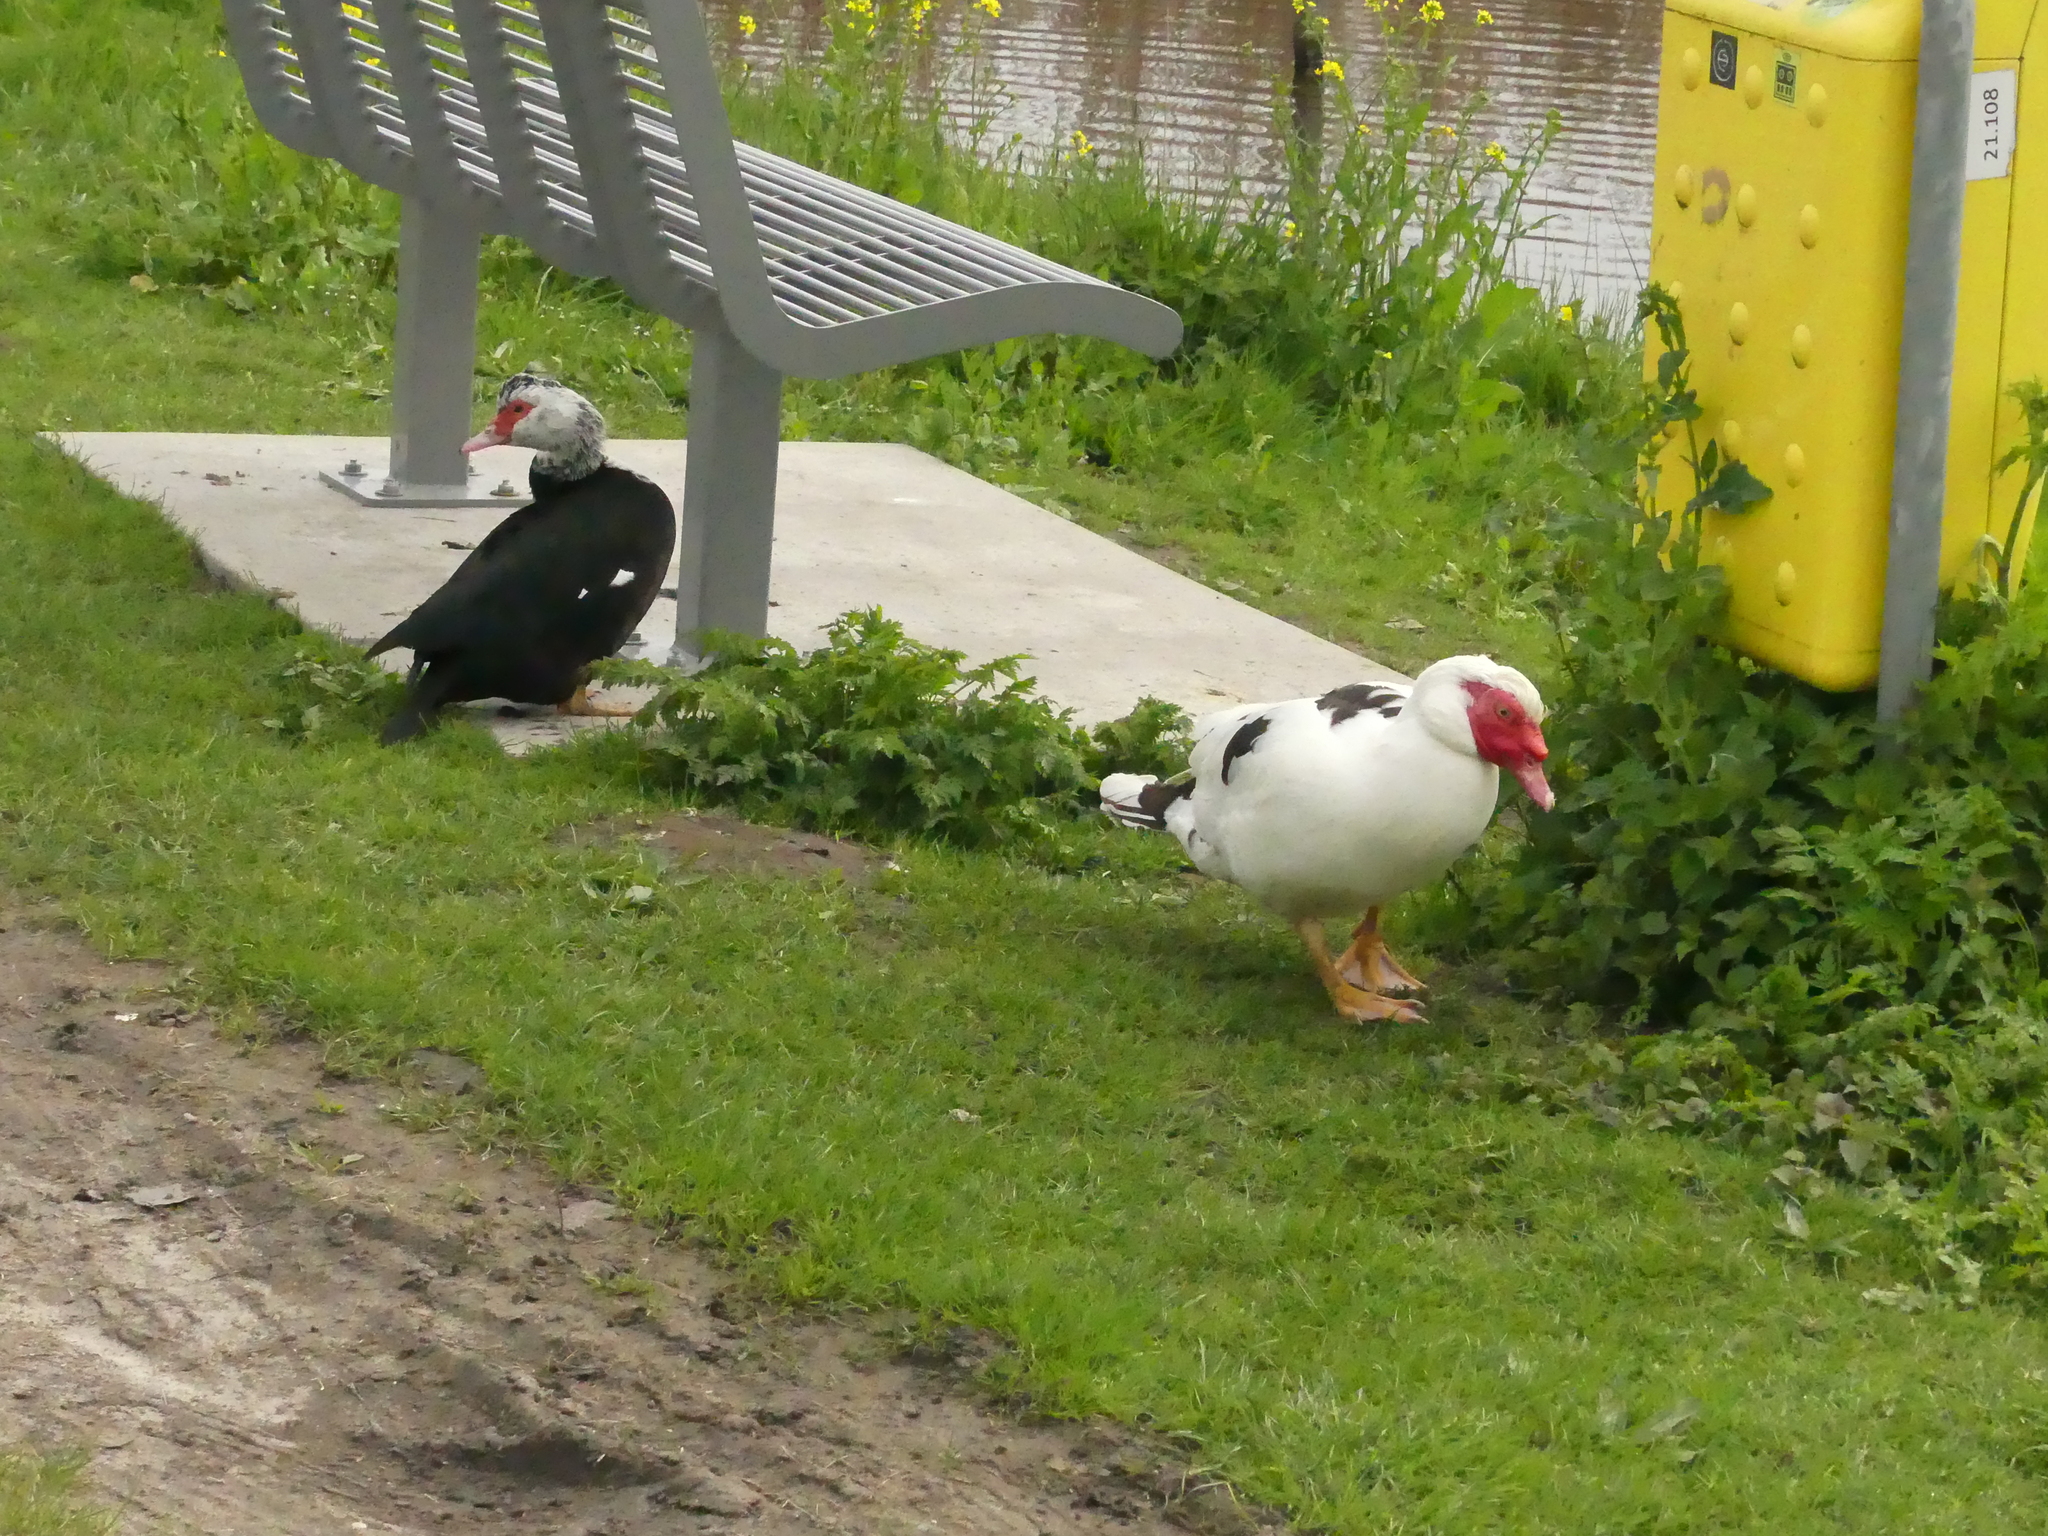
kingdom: Animalia
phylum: Chordata
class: Aves
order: Anseriformes
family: Anatidae
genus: Cairina
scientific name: Cairina moschata
